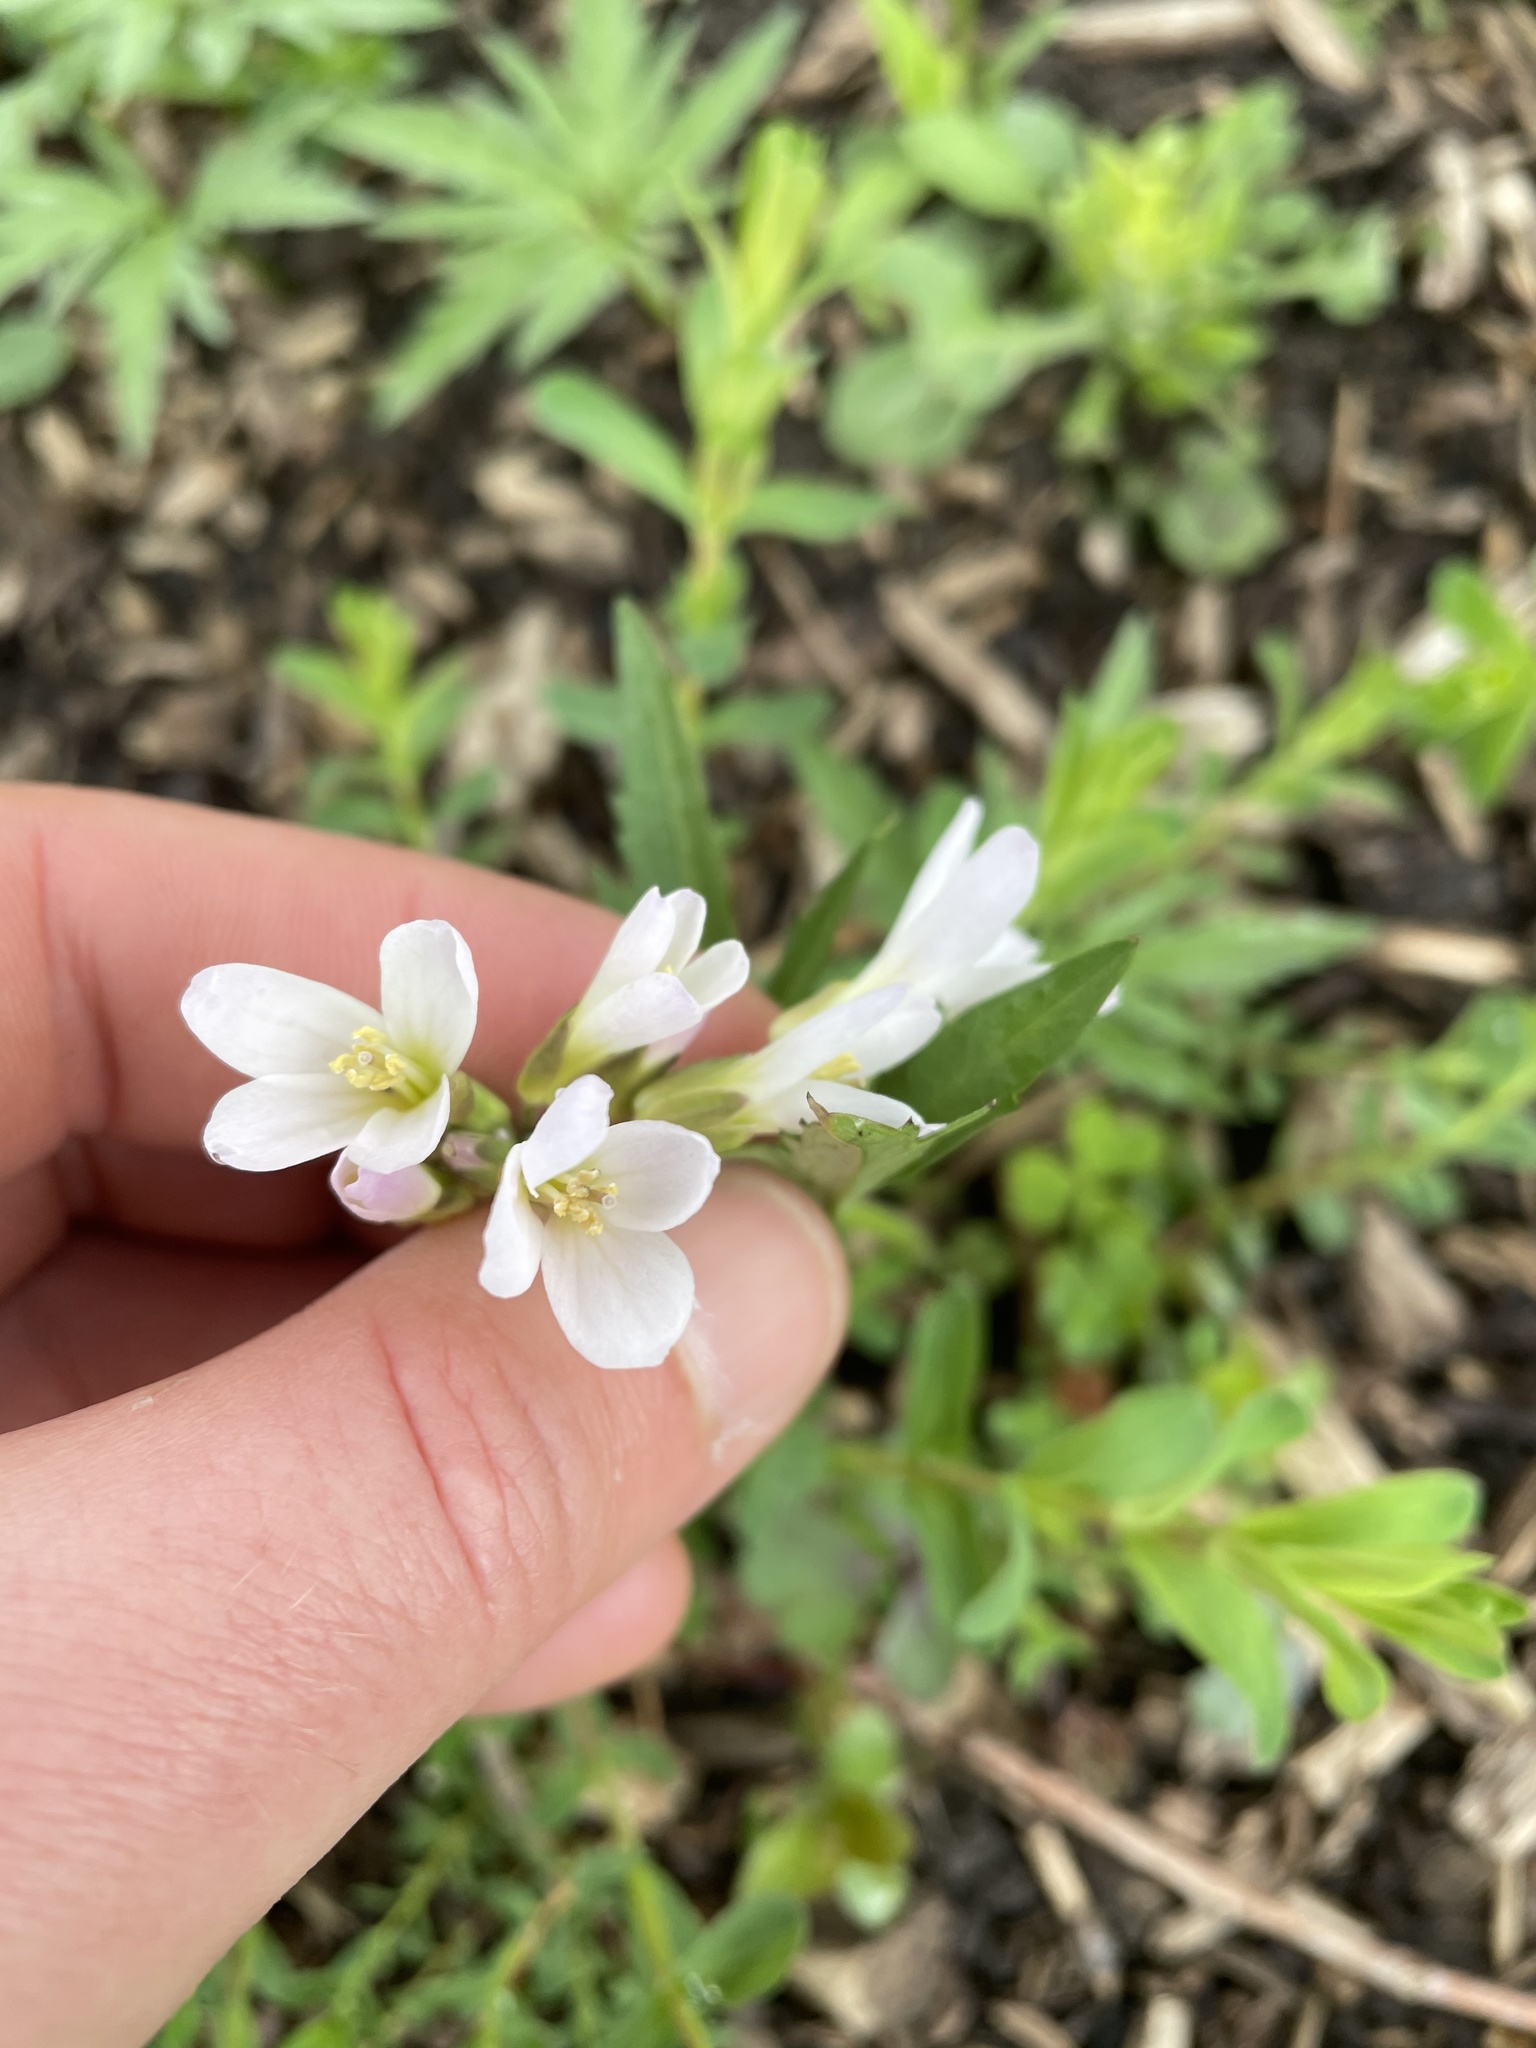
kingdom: Plantae
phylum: Tracheophyta
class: Magnoliopsida
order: Brassicales
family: Brassicaceae
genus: Cardamine
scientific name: Cardamine concatenata
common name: Cut-leaf toothcup
